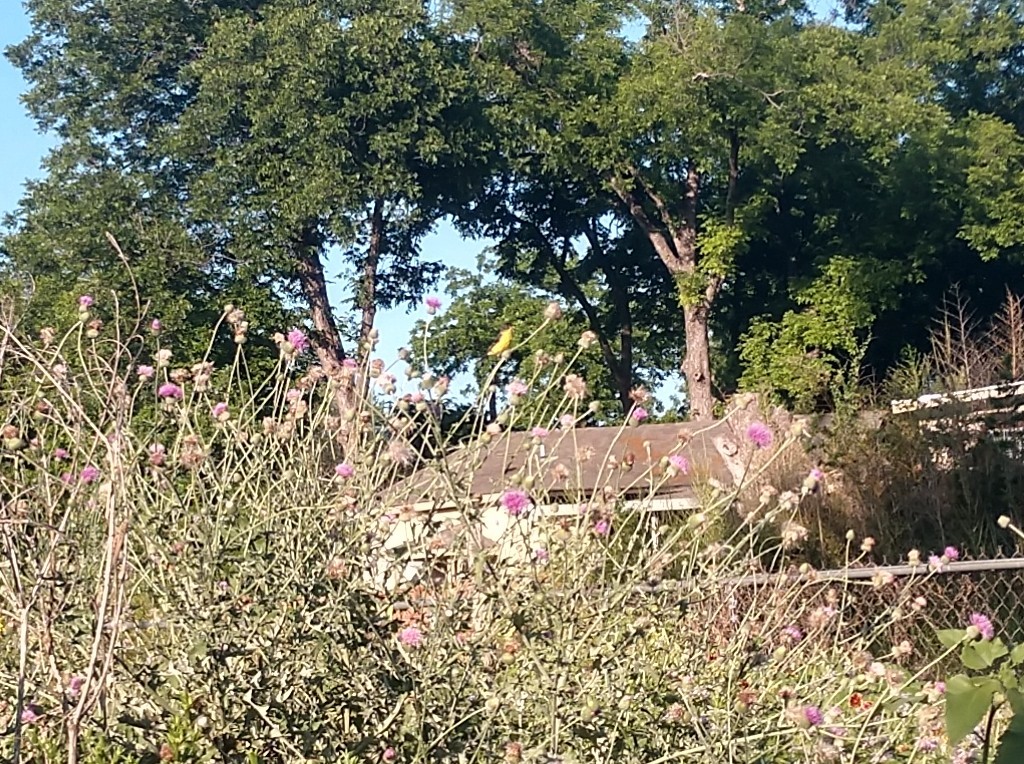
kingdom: Animalia
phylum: Chordata
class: Aves
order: Passeriformes
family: Fringillidae
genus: Spinus
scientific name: Spinus psaltria
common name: Lesser goldfinch
